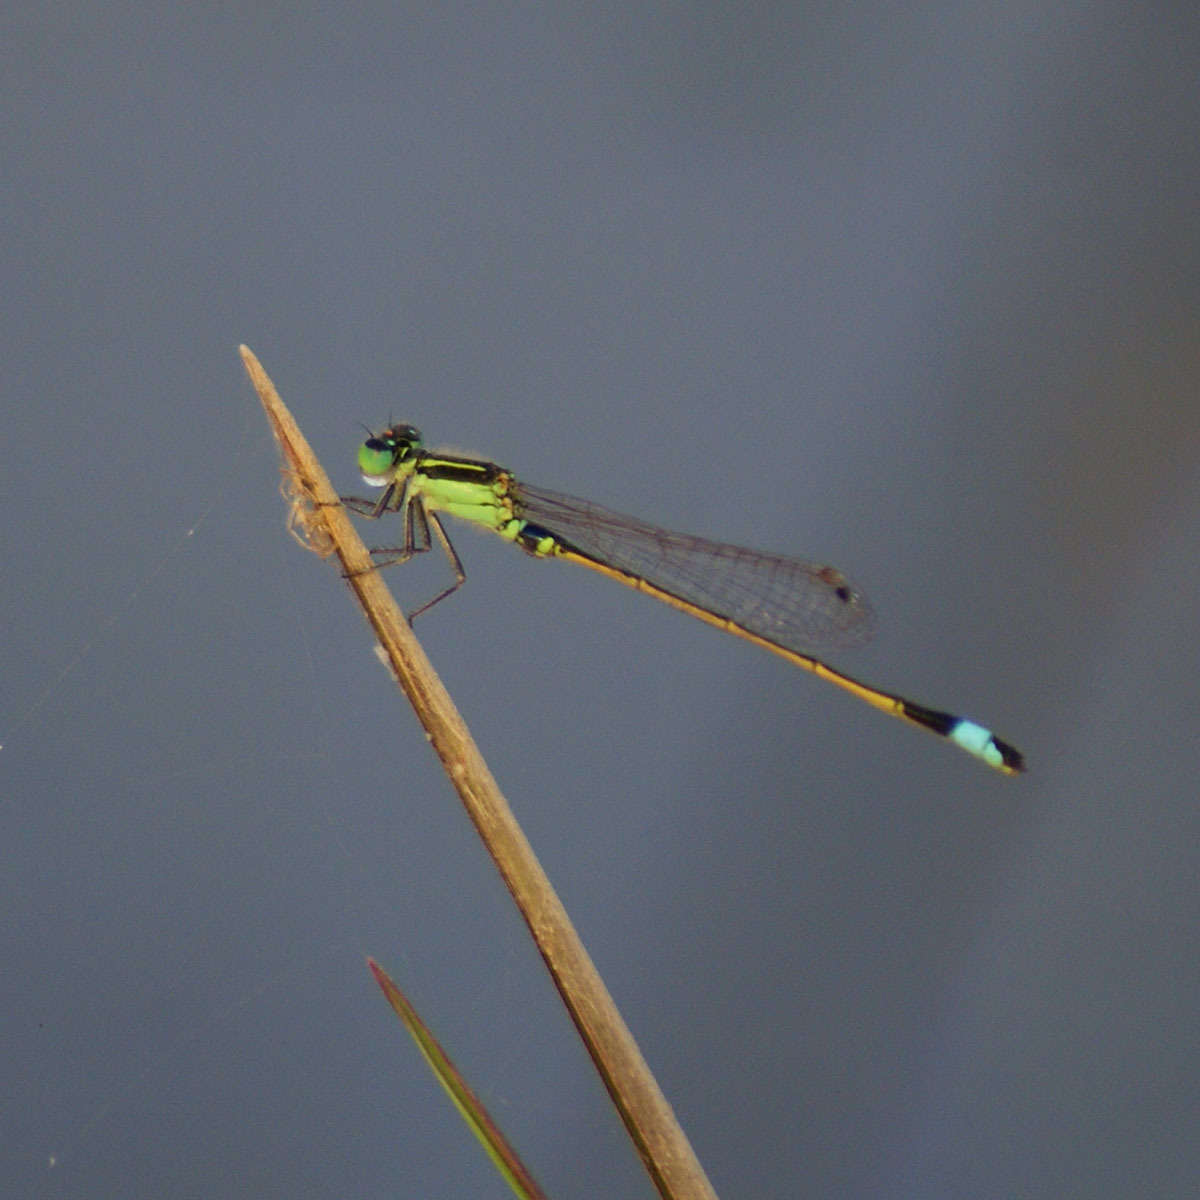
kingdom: Animalia
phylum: Arthropoda
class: Insecta
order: Odonata
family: Coenagrionidae
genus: Ischnura
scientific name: Ischnura senegalensis
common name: Tropical bluetail
